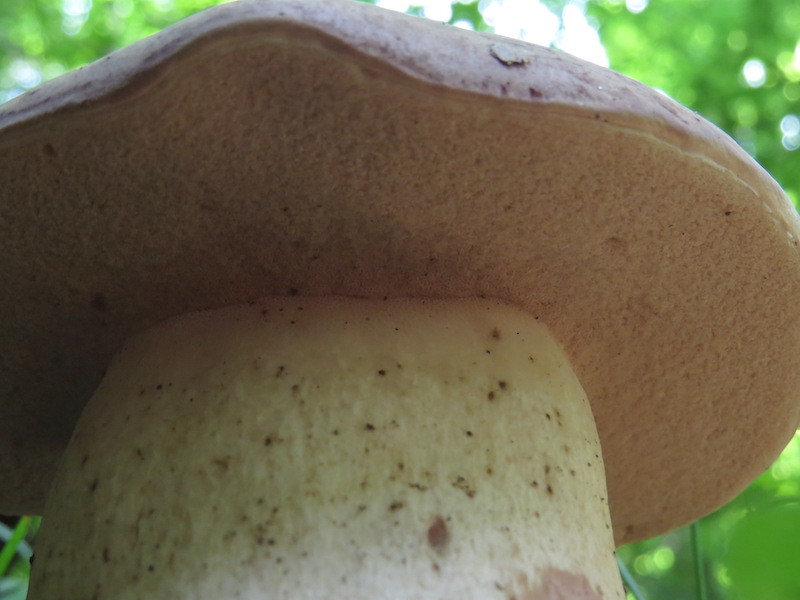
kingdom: Fungi
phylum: Basidiomycota
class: Agaricomycetes
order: Boletales
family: Boletaceae
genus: Tylopilus
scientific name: Tylopilus rubrobrunneus
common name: Reddish brown bitter bolete
